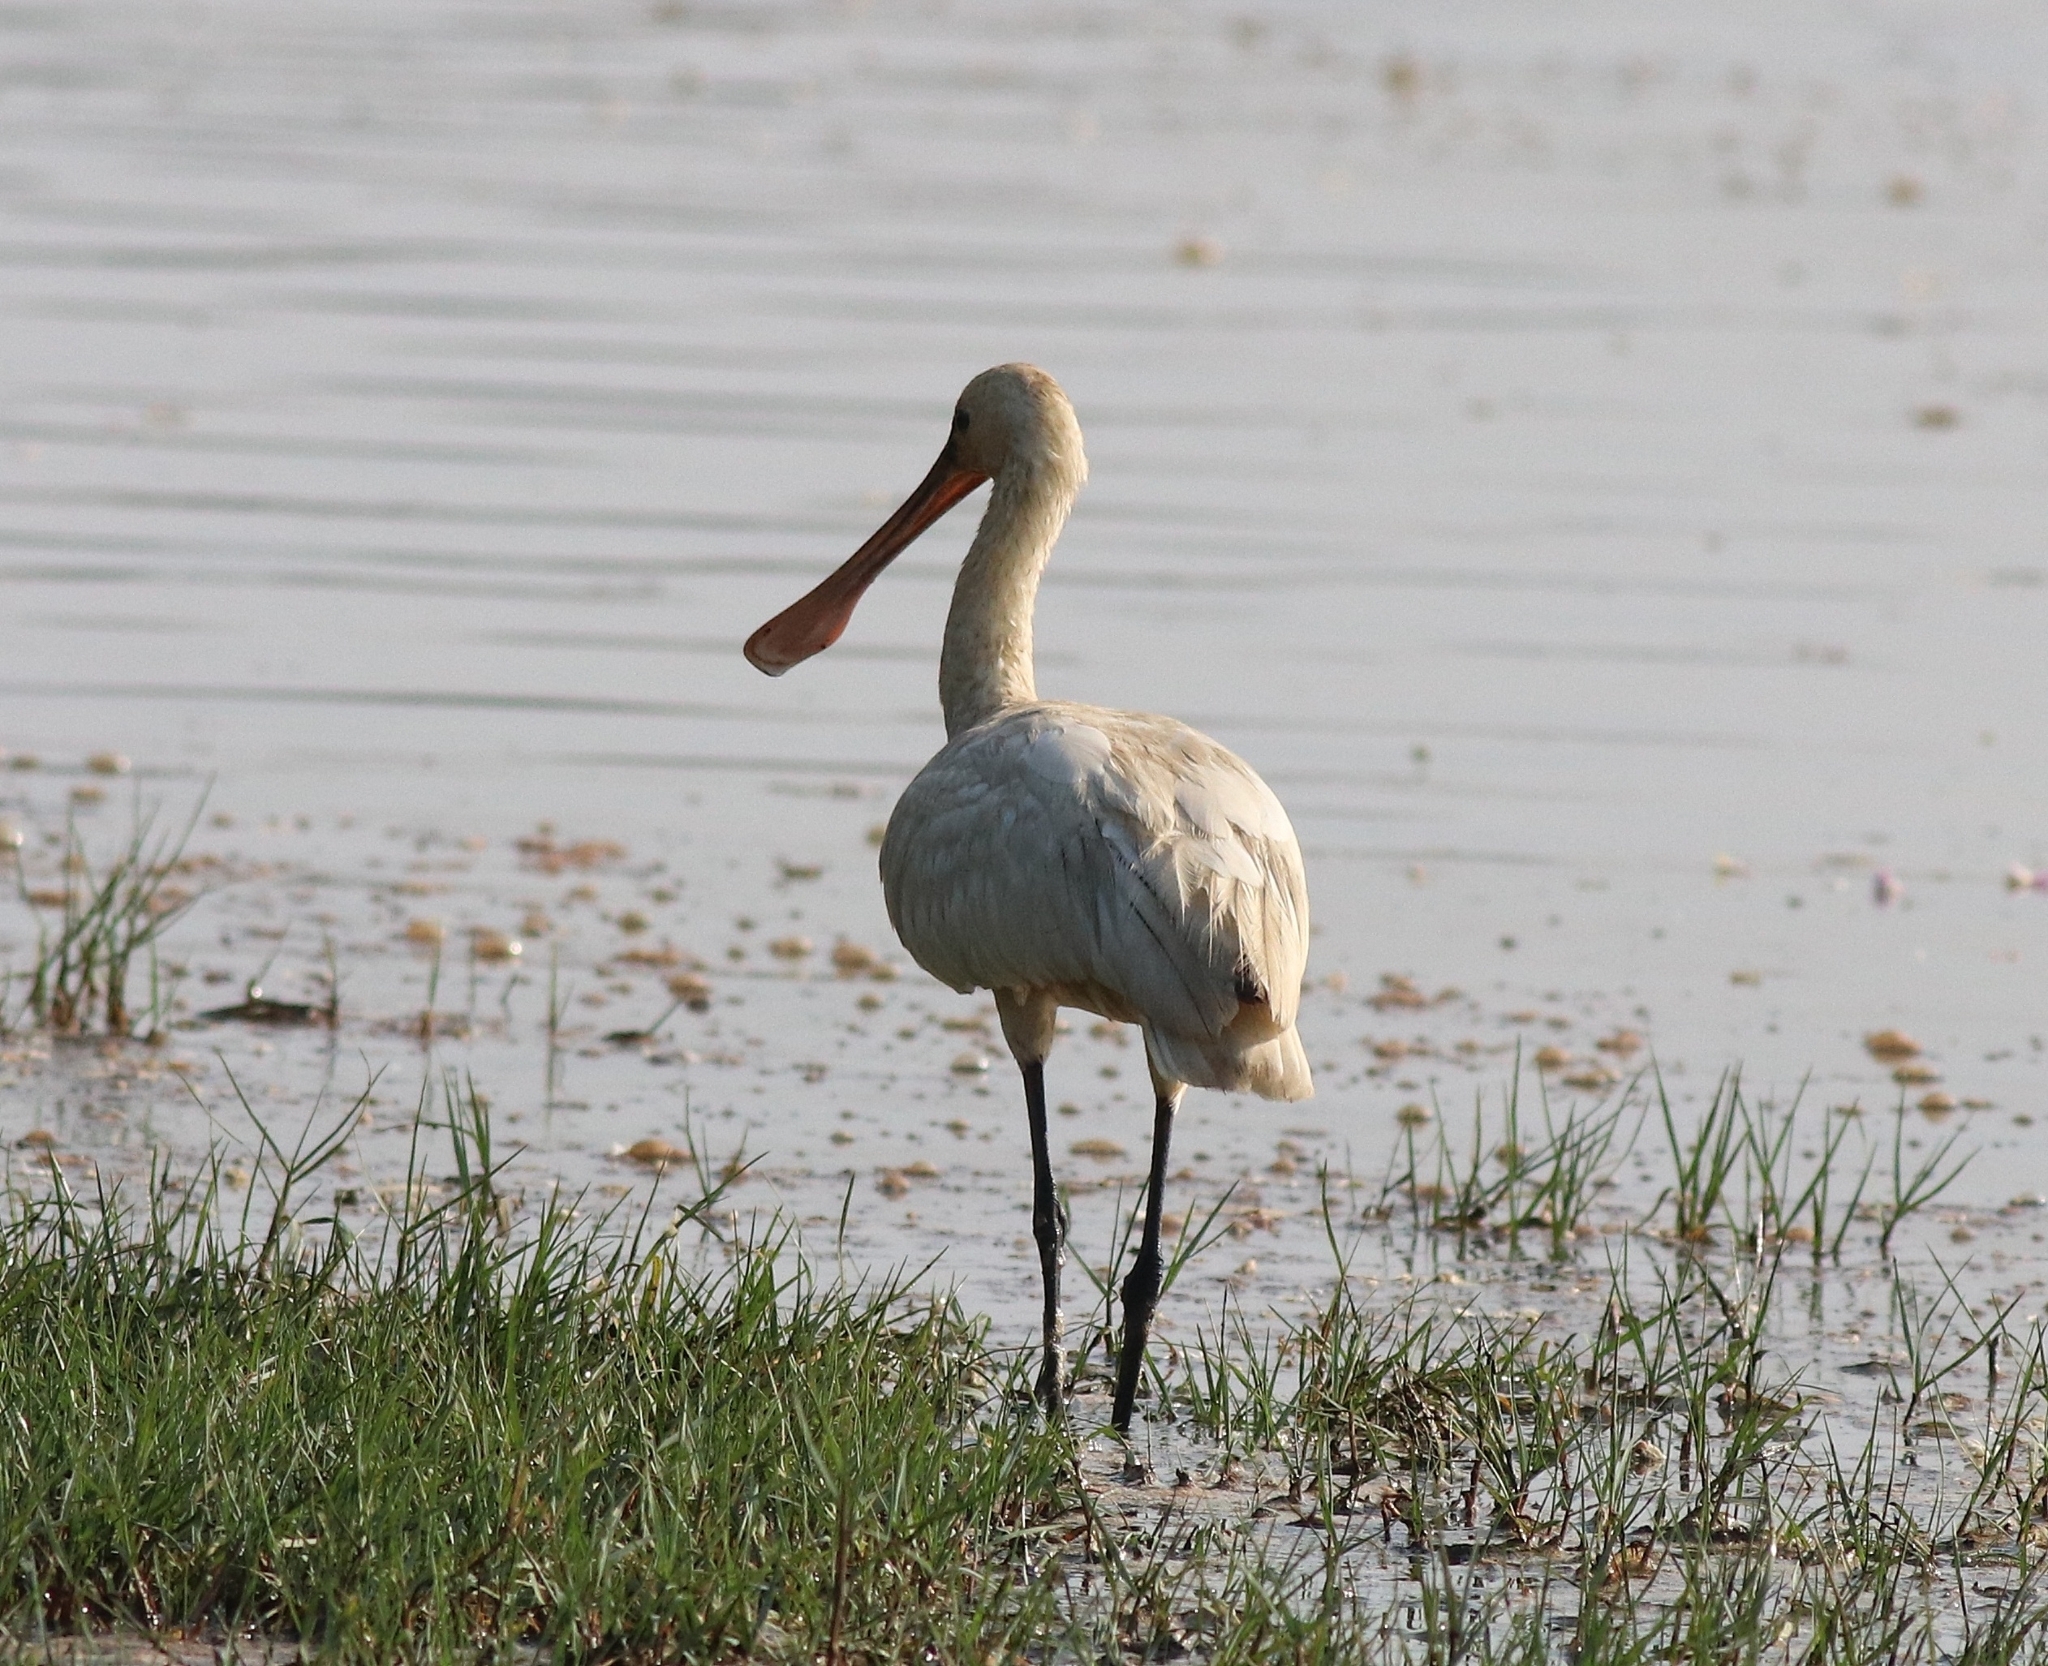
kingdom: Animalia
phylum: Chordata
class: Aves
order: Pelecaniformes
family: Threskiornithidae
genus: Platalea
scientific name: Platalea leucorodia
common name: Eurasian spoonbill
